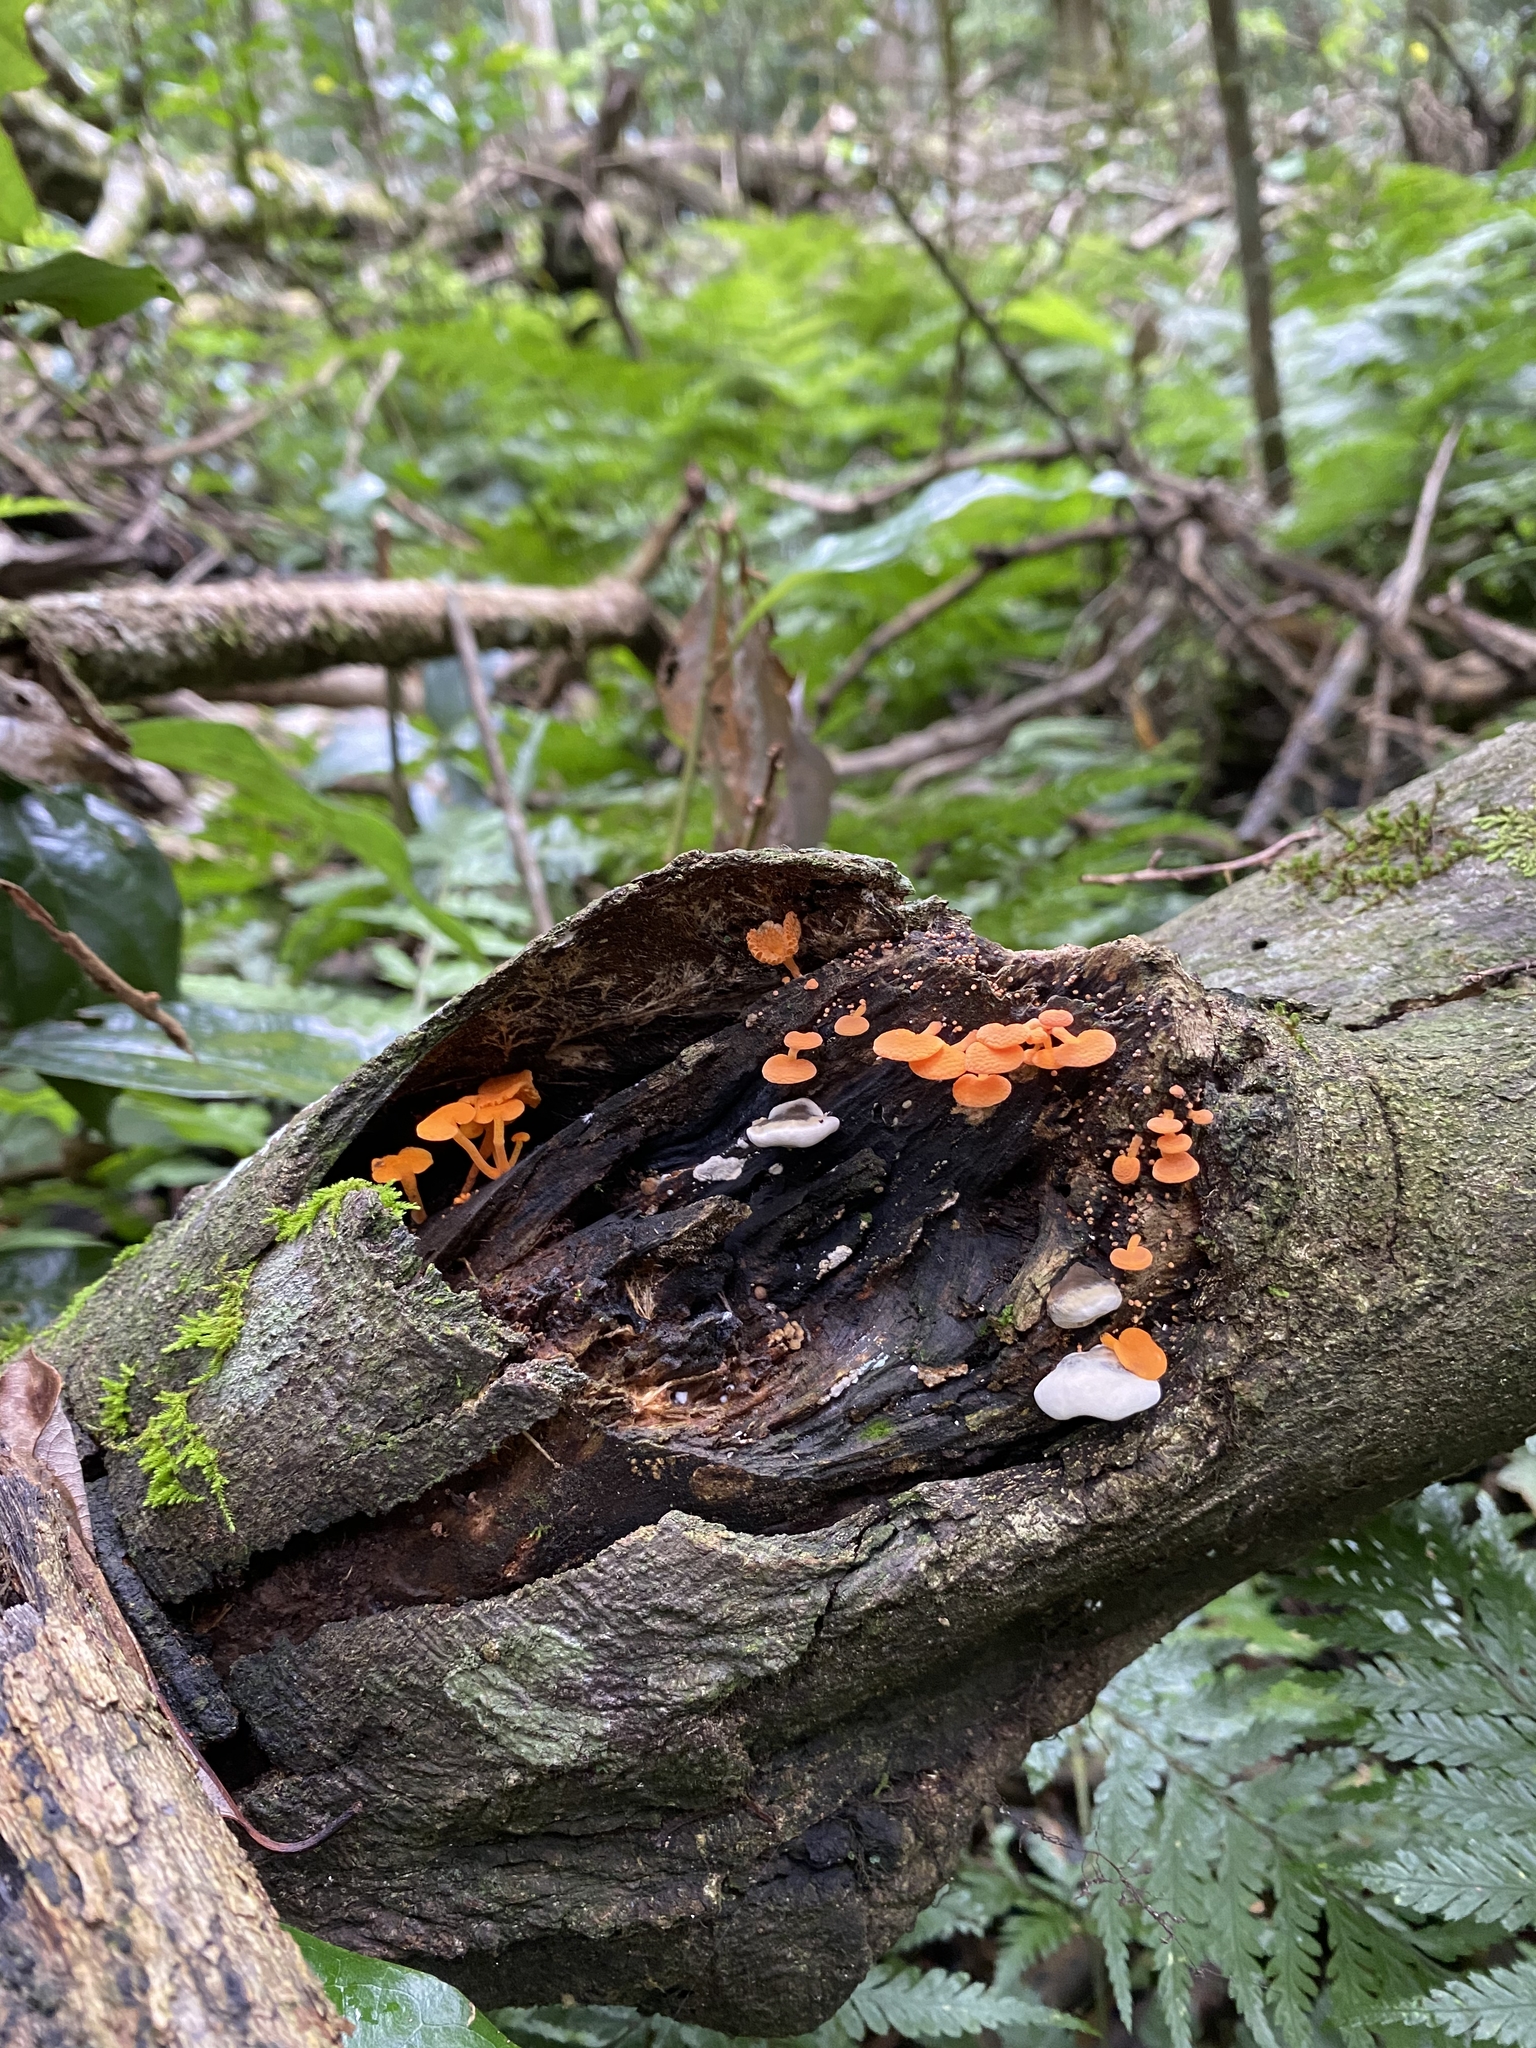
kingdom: Fungi
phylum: Basidiomycota
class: Agaricomycetes
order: Agaricales
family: Mycenaceae
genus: Favolaschia
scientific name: Favolaschia claudopus
